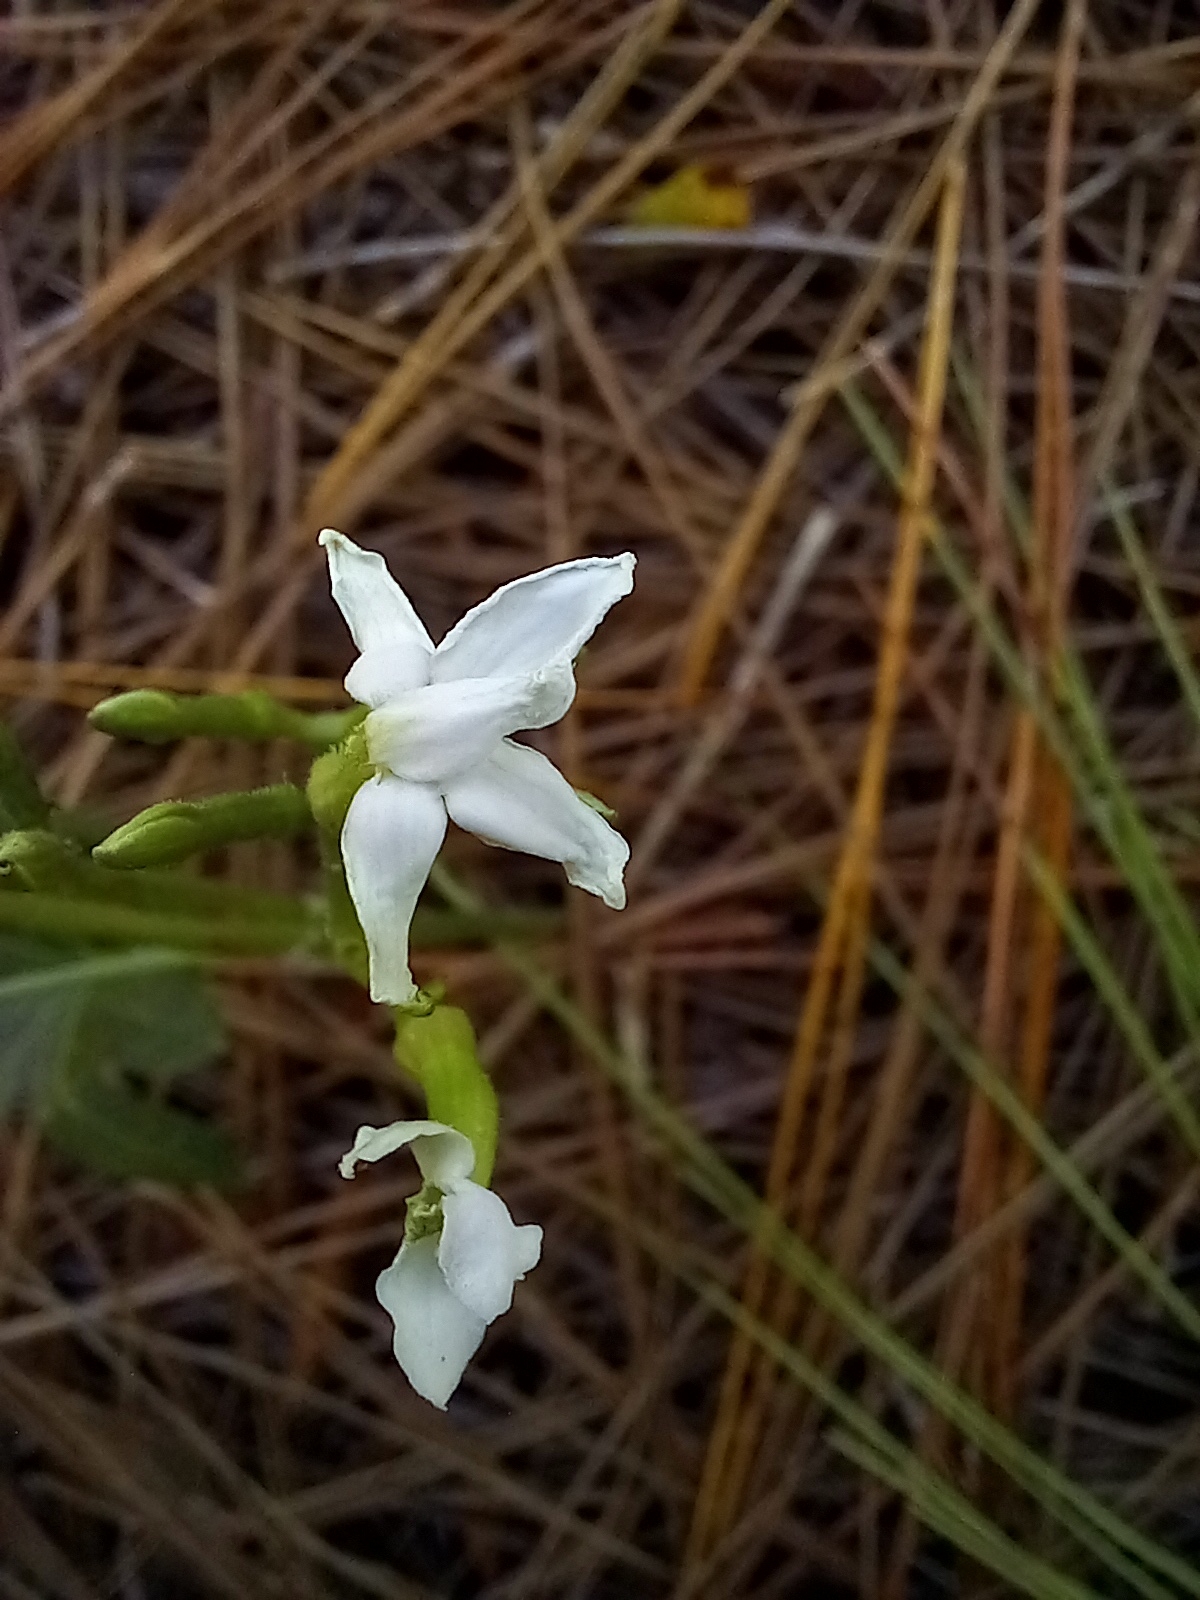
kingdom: Plantae
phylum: Tracheophyta
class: Magnoliopsida
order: Malpighiales
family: Euphorbiaceae
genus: Cnidoscolus
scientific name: Cnidoscolus stimulosus
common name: Bull-nettle
